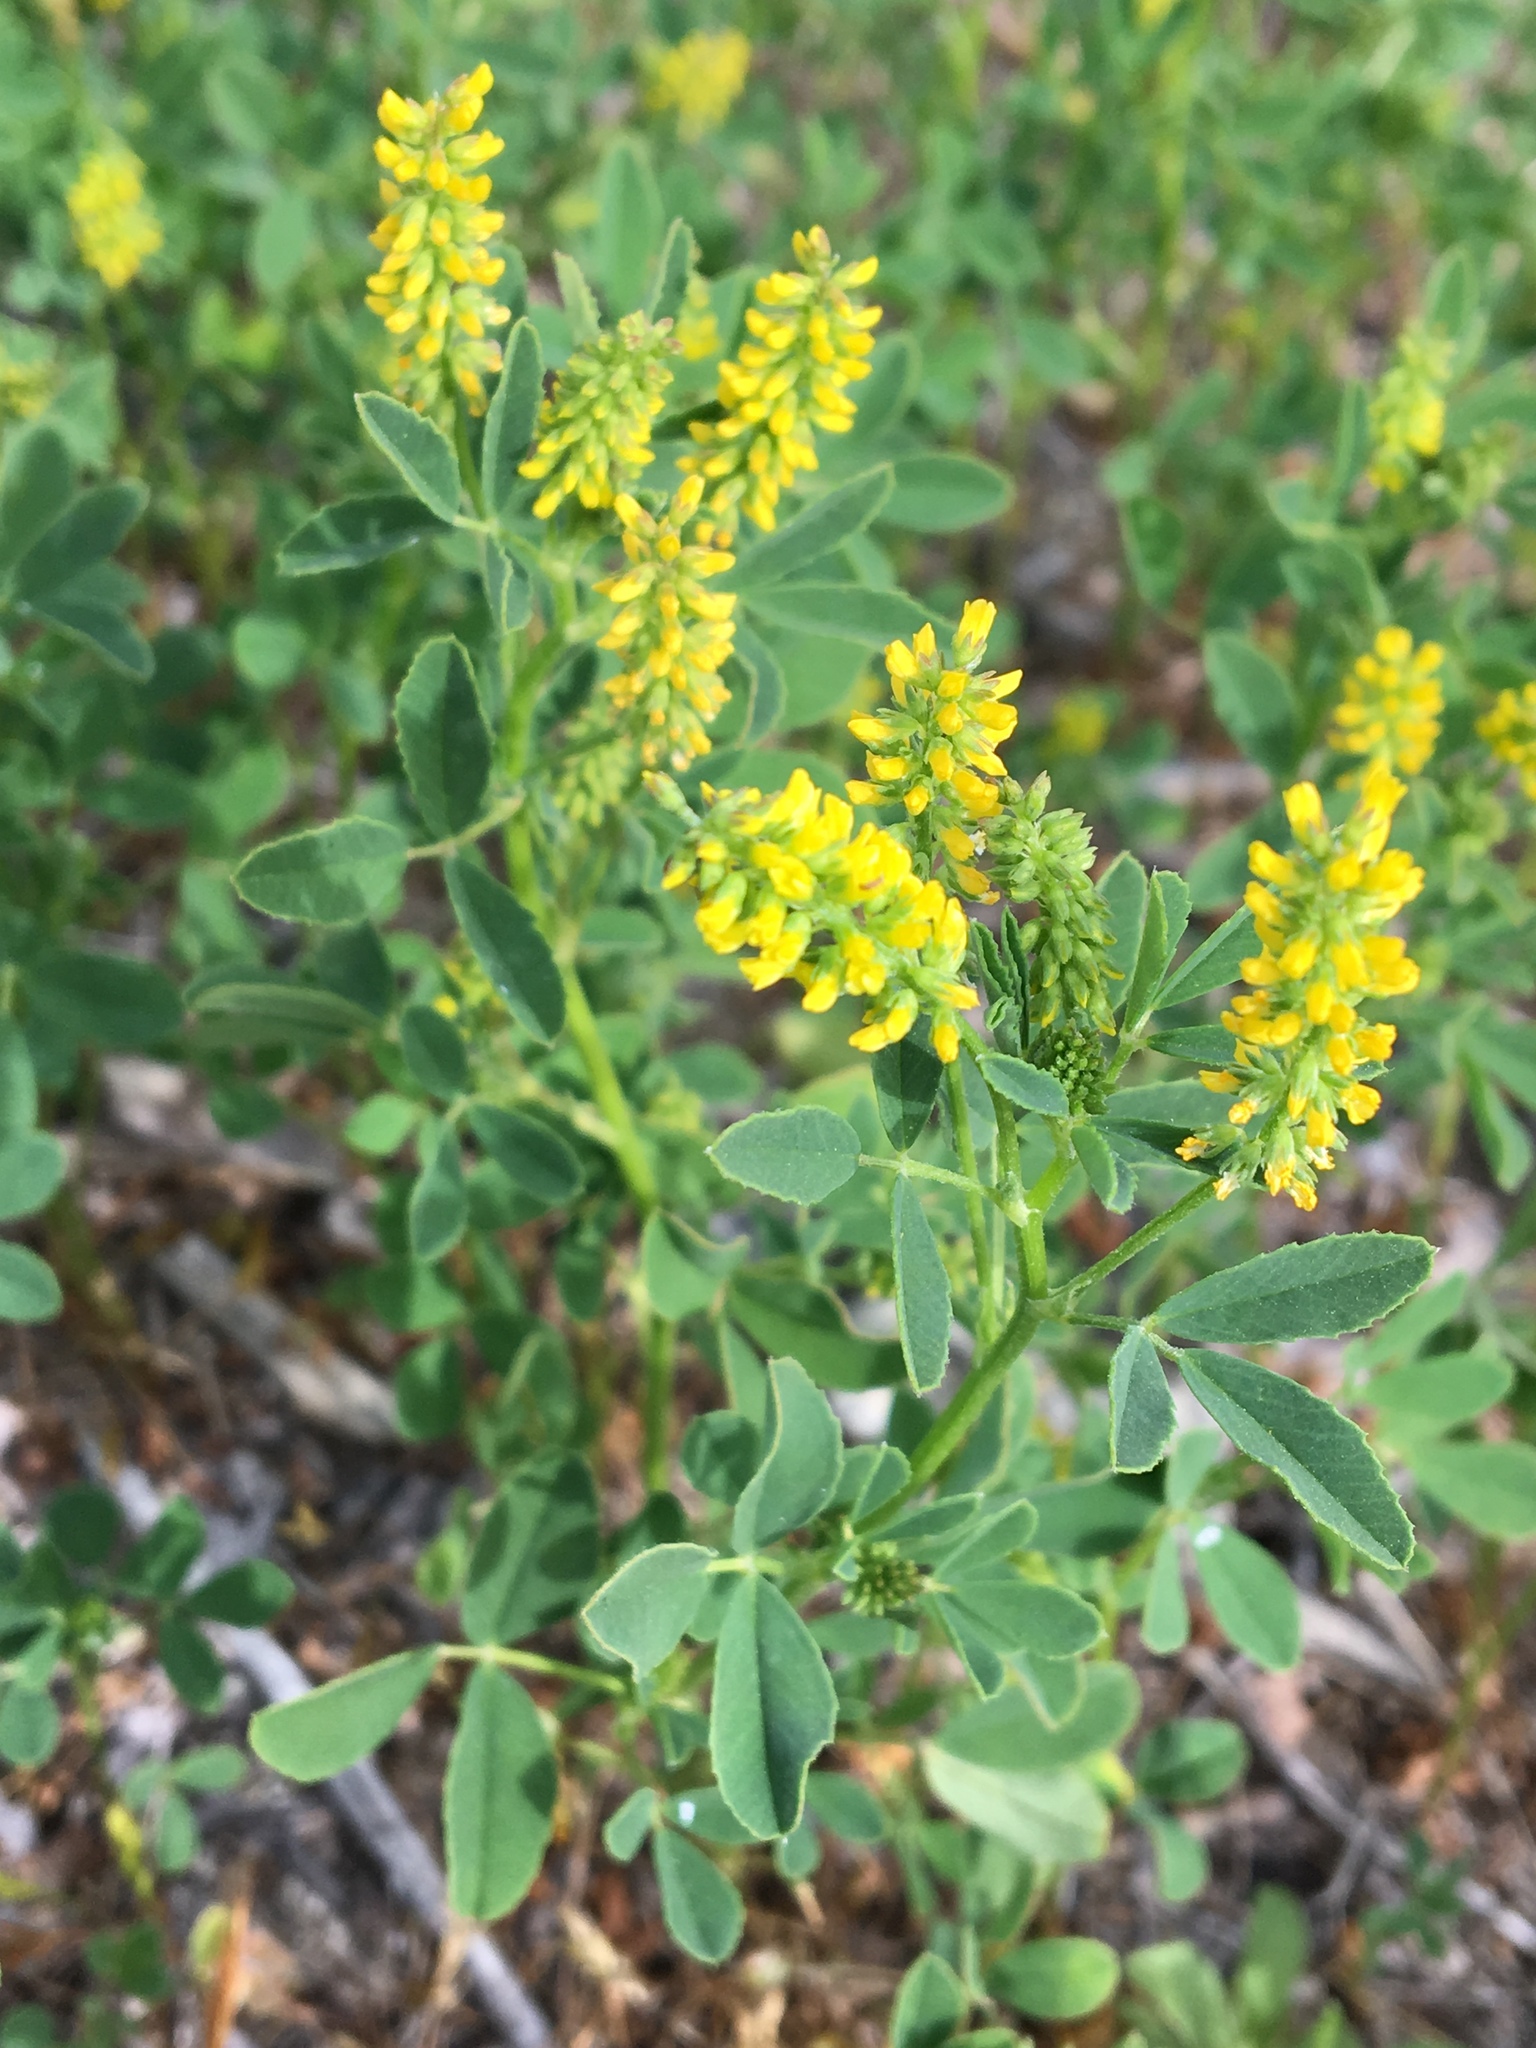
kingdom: Plantae
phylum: Tracheophyta
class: Magnoliopsida
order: Fabales
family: Fabaceae
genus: Melilotus
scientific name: Melilotus indicus
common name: Small melilot
